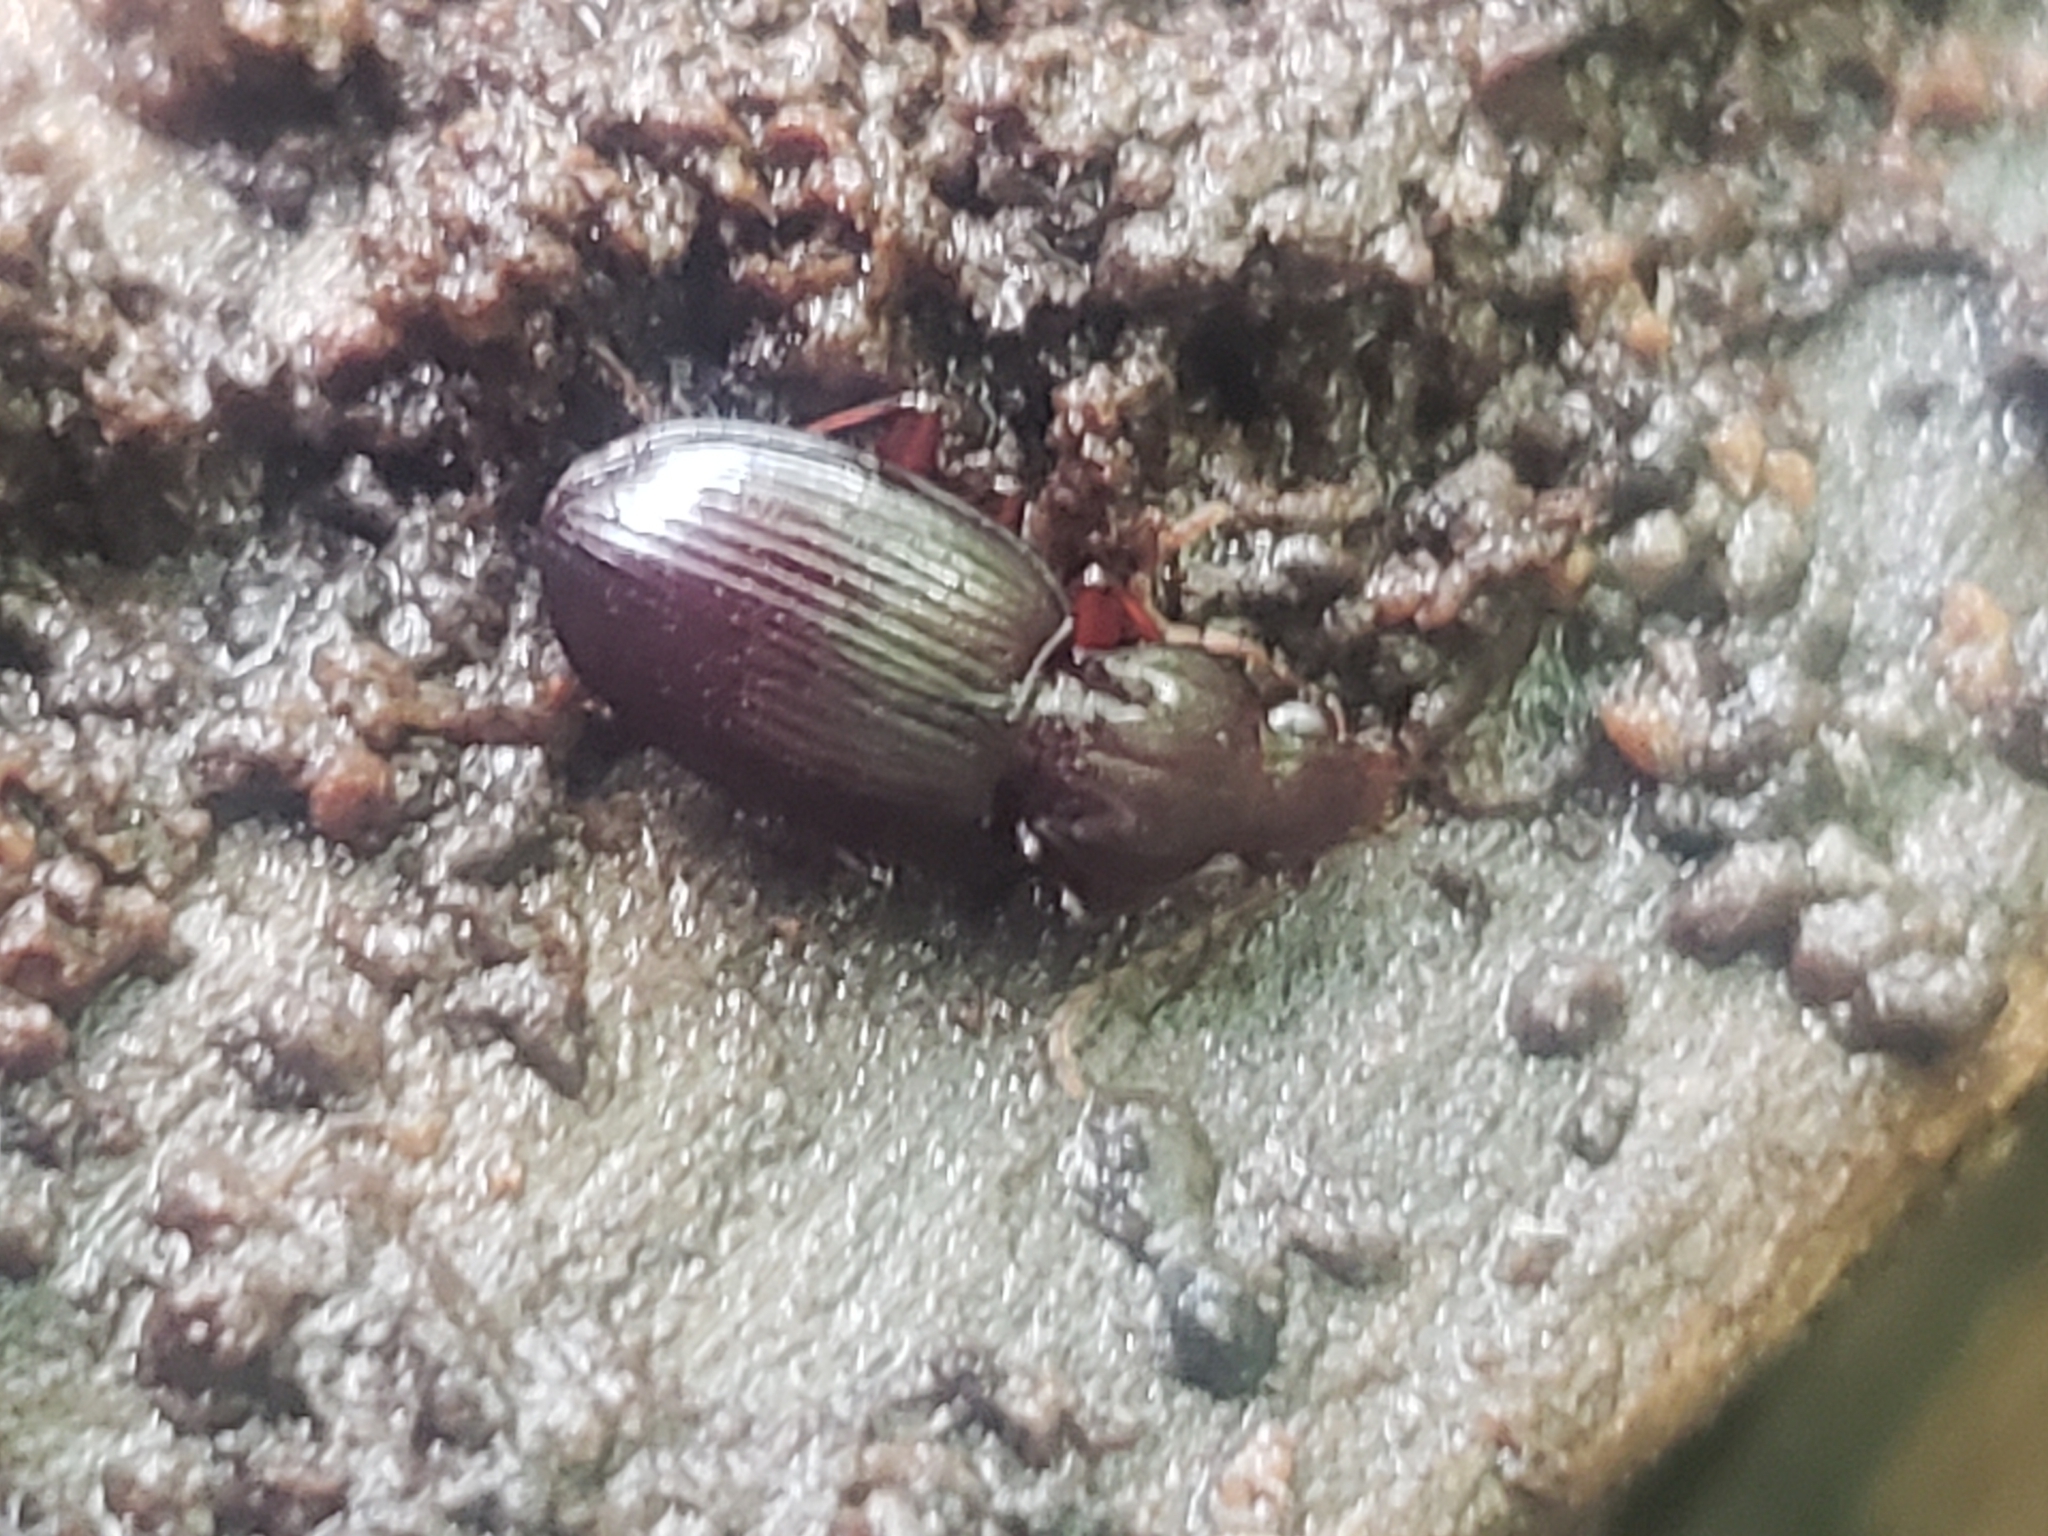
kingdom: Animalia
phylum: Arthropoda
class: Insecta
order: Coleoptera
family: Carabidae
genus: Gastrellarius
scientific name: Gastrellarius honestus
